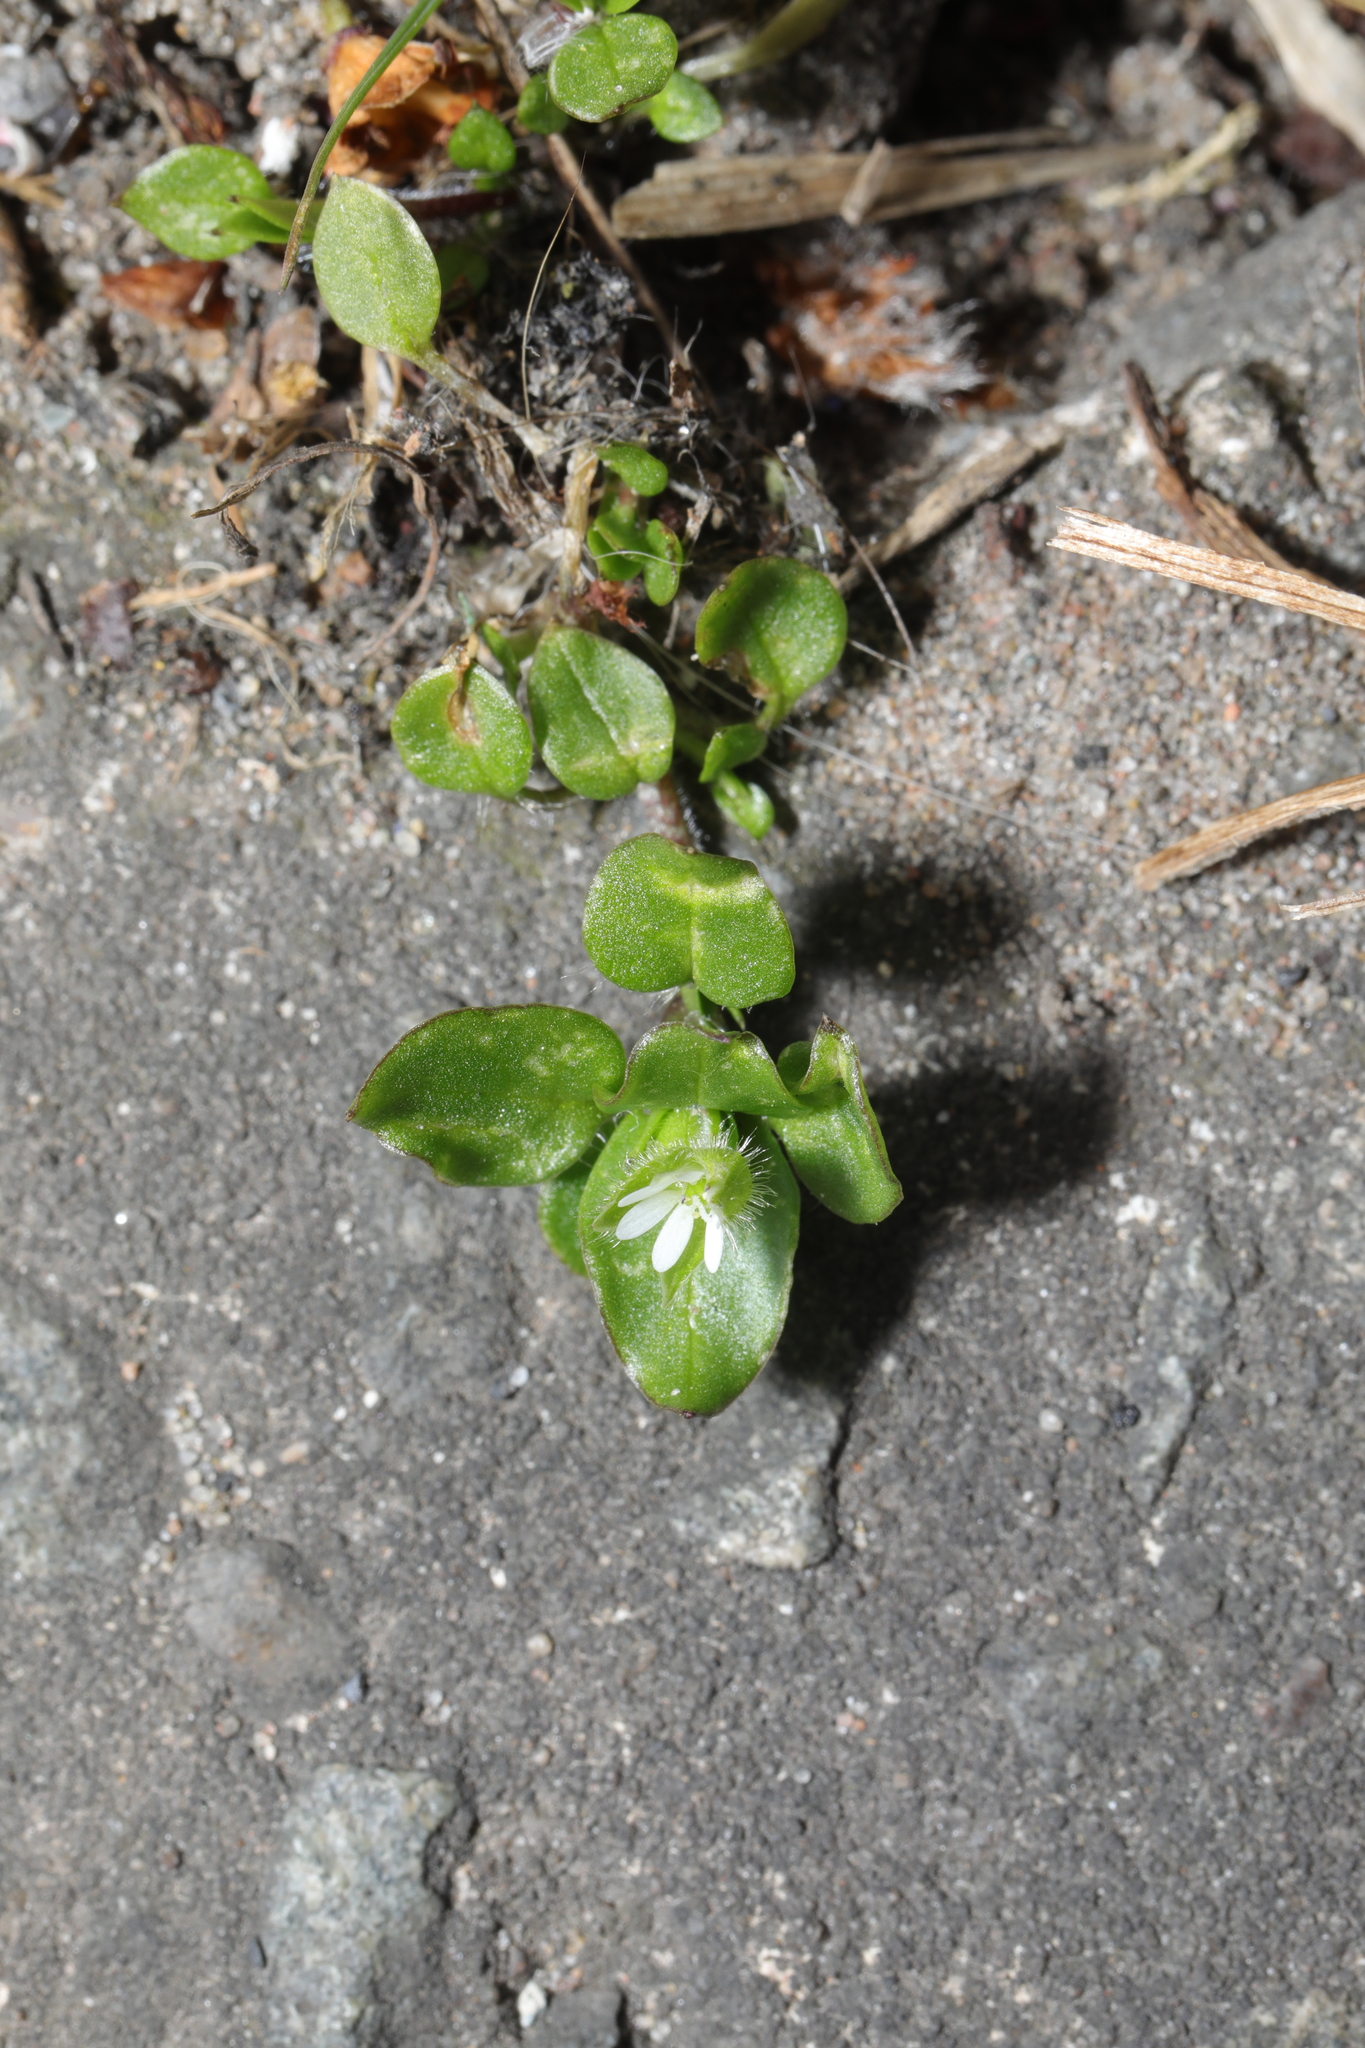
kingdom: Plantae
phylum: Tracheophyta
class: Magnoliopsida
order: Caryophyllales
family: Caryophyllaceae
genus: Stellaria
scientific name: Stellaria media
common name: Common chickweed
